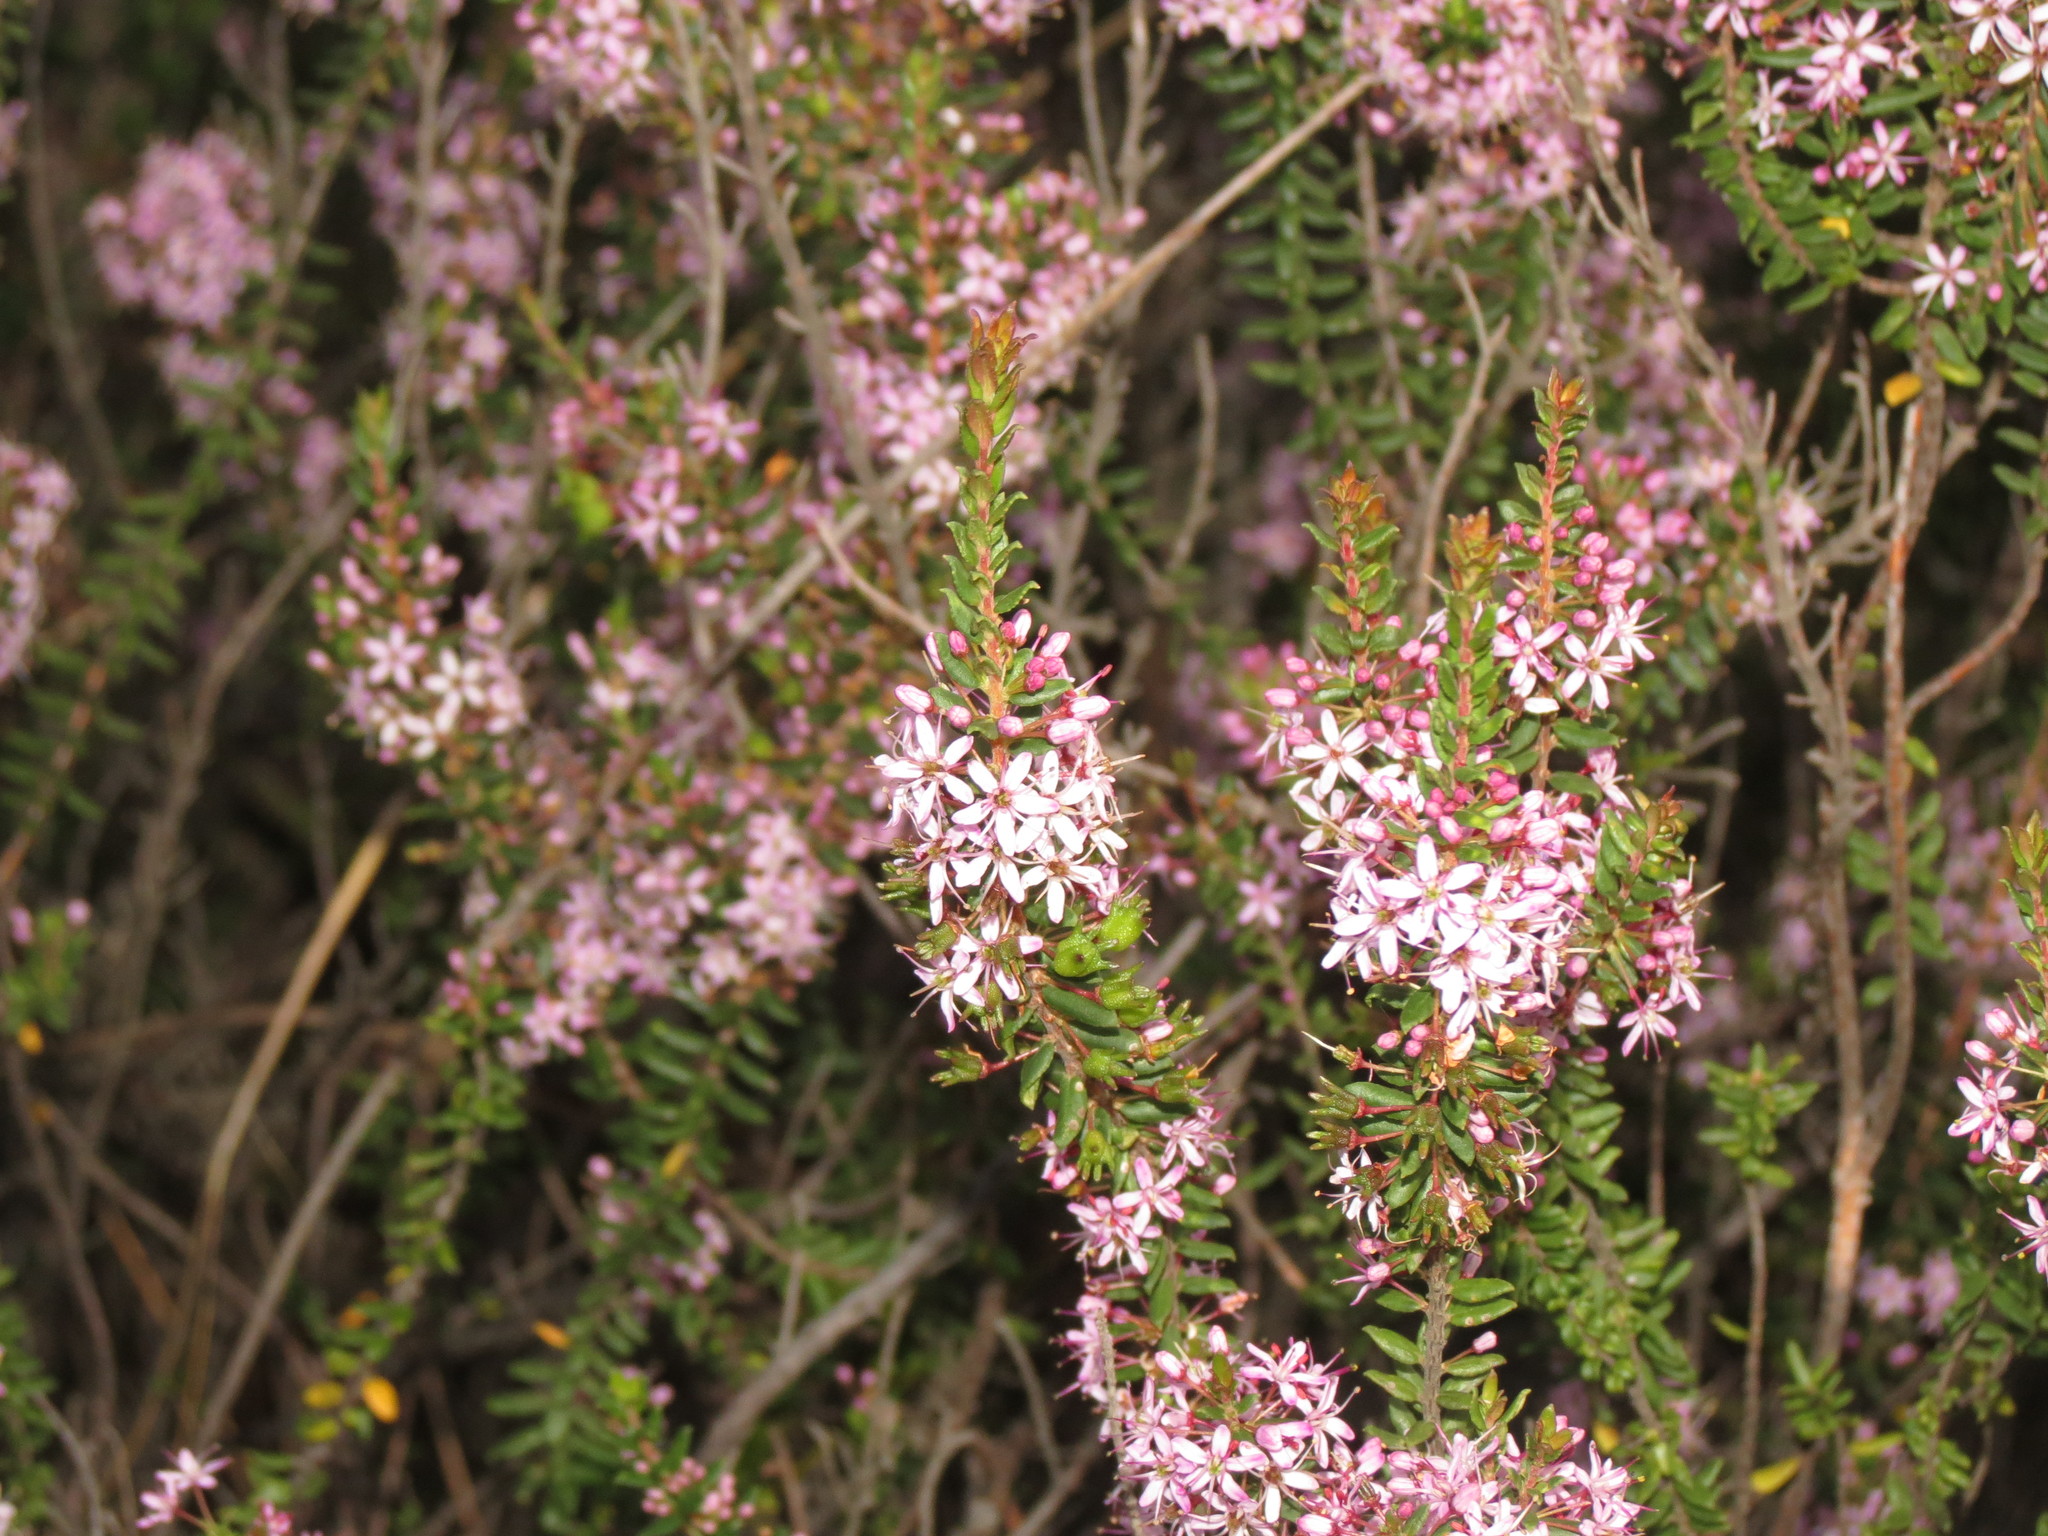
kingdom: Plantae
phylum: Tracheophyta
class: Magnoliopsida
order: Sapindales
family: Rutaceae
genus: Agathosma
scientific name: Agathosma ovata
